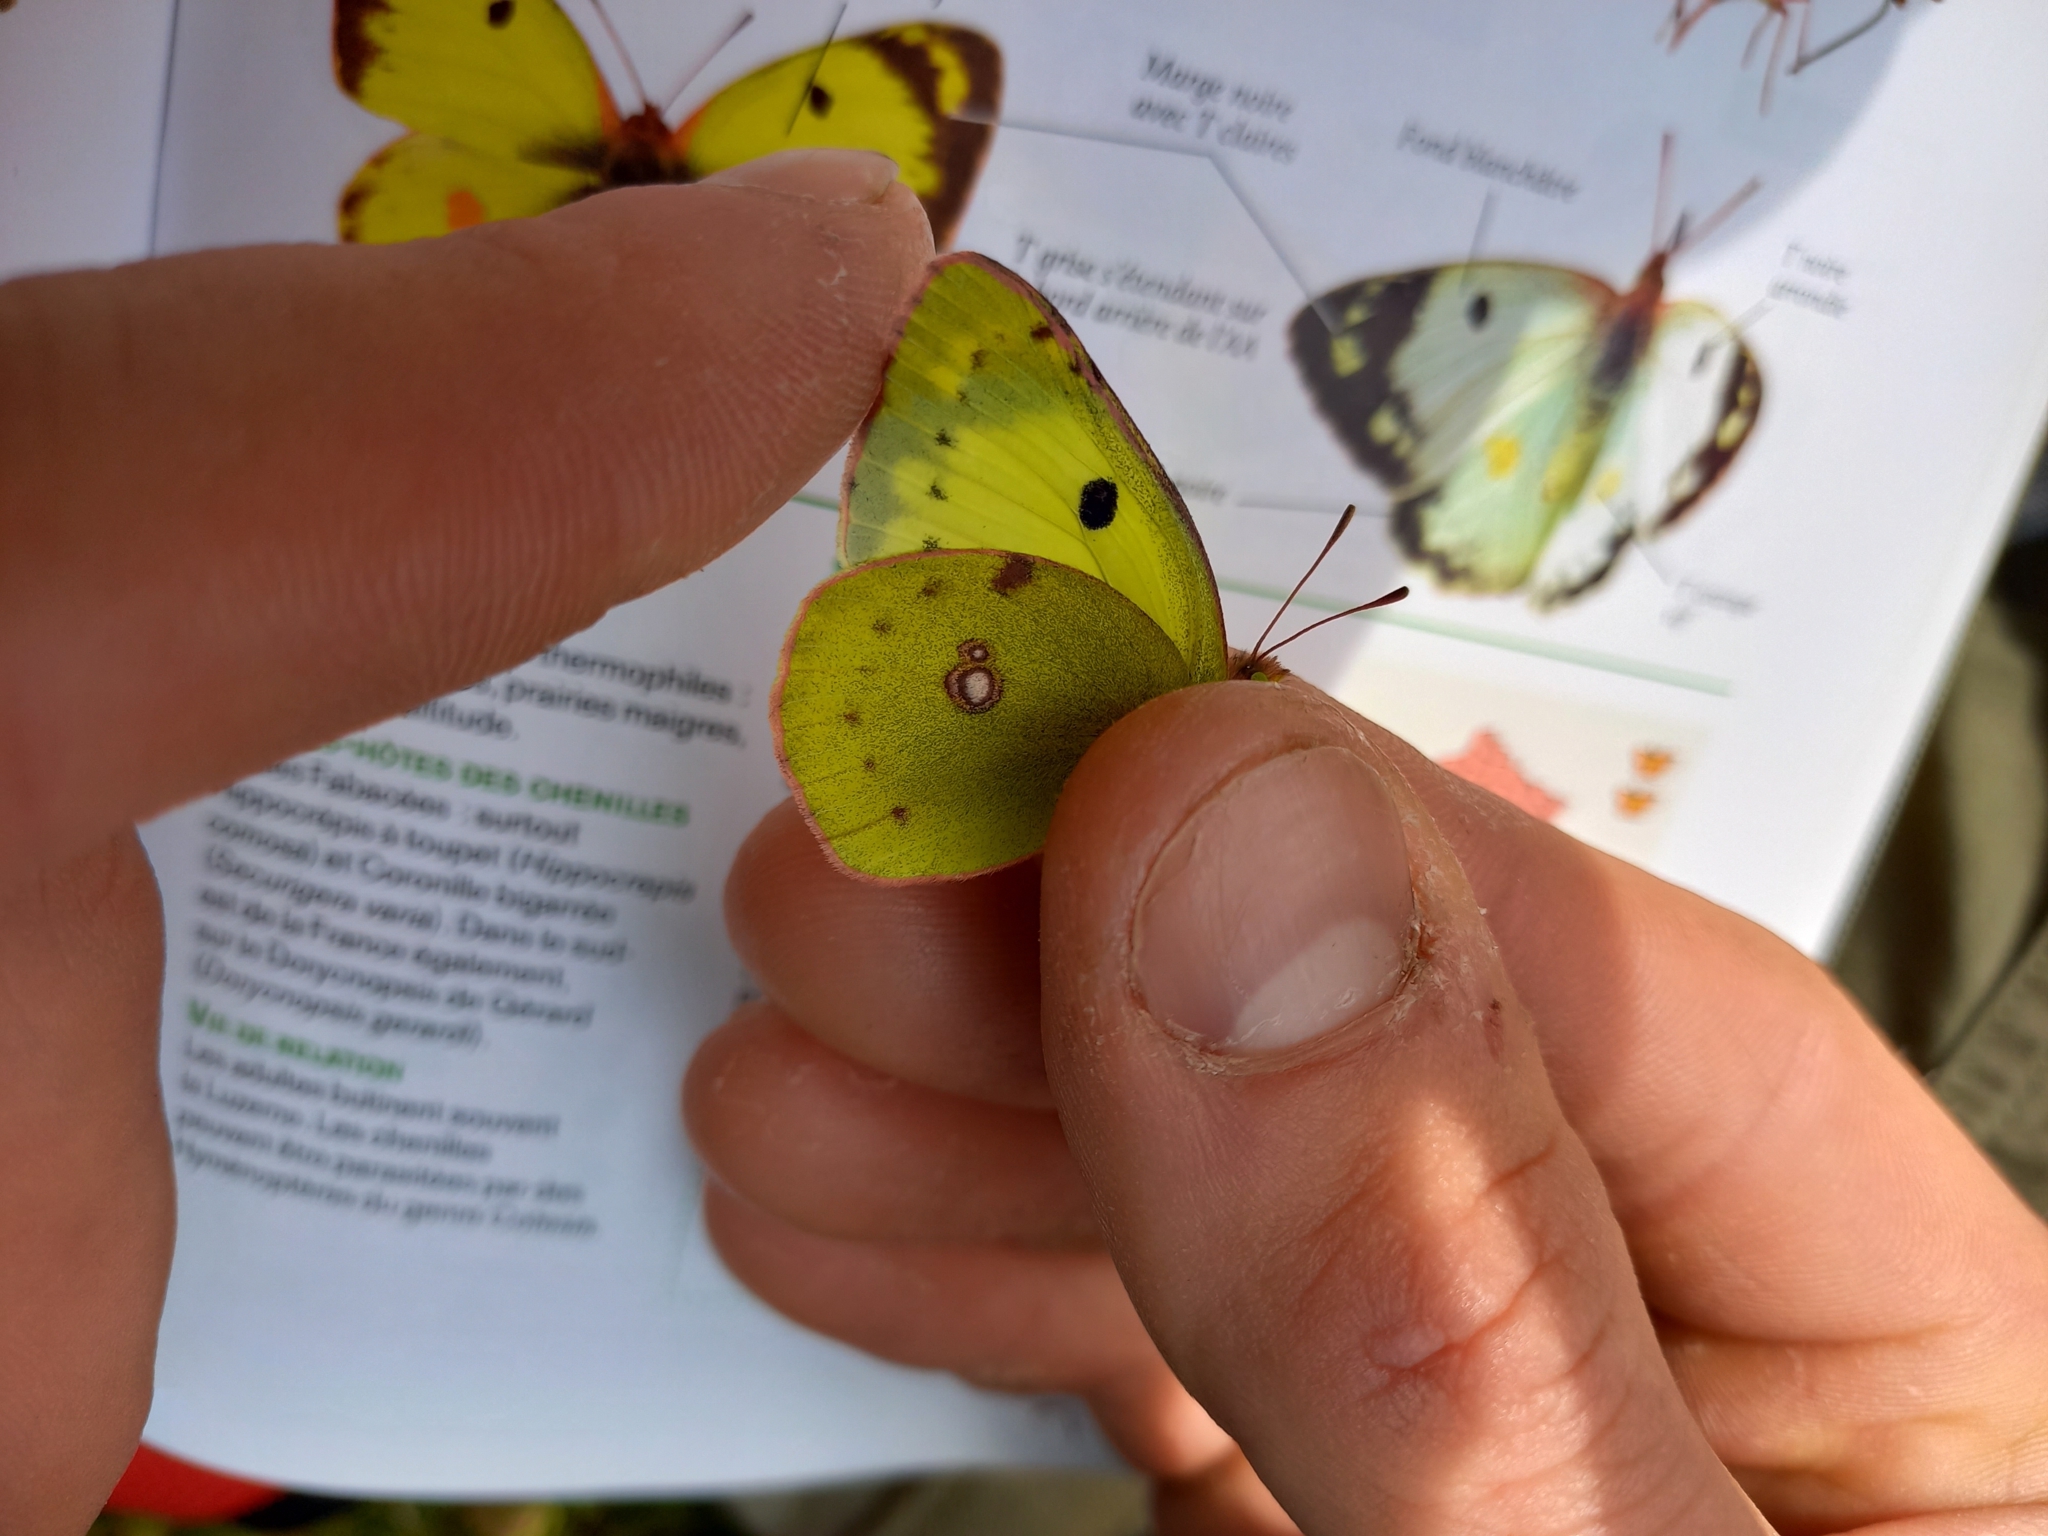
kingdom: Animalia
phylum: Arthropoda
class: Insecta
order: Lepidoptera
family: Pieridae
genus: Colias
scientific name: Colias alfacariensis
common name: Berger's clouded yellow
